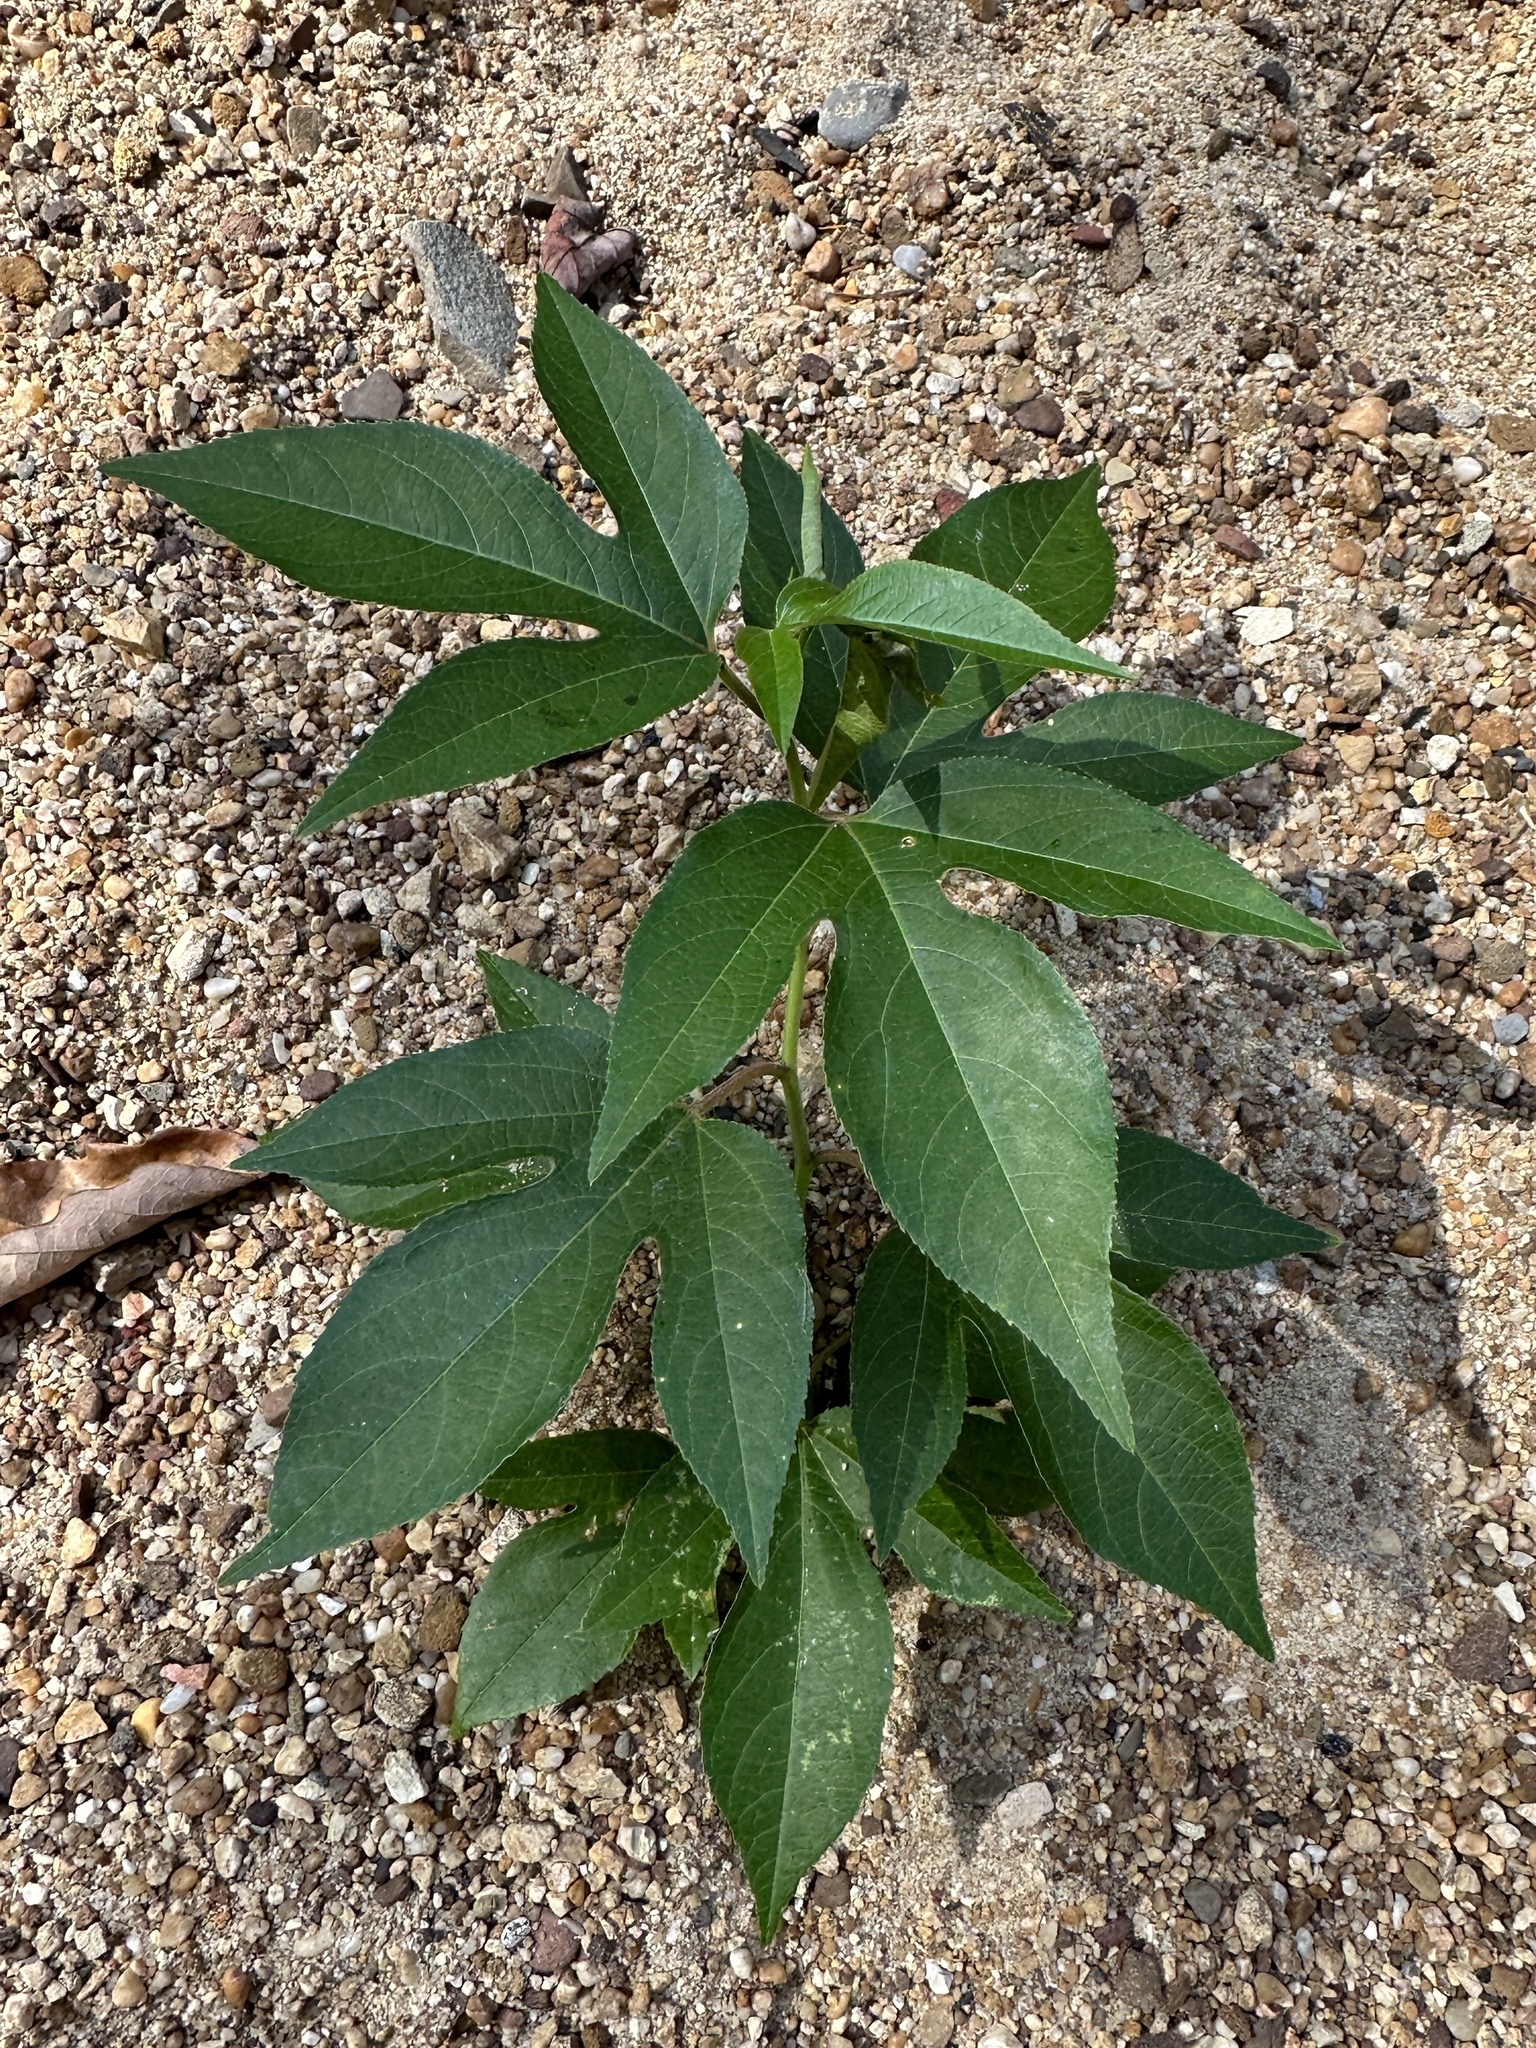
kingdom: Plantae
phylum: Tracheophyta
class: Magnoliopsida
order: Malpighiales
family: Passifloraceae
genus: Passiflora
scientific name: Passiflora incarnata
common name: Apricot-vine
